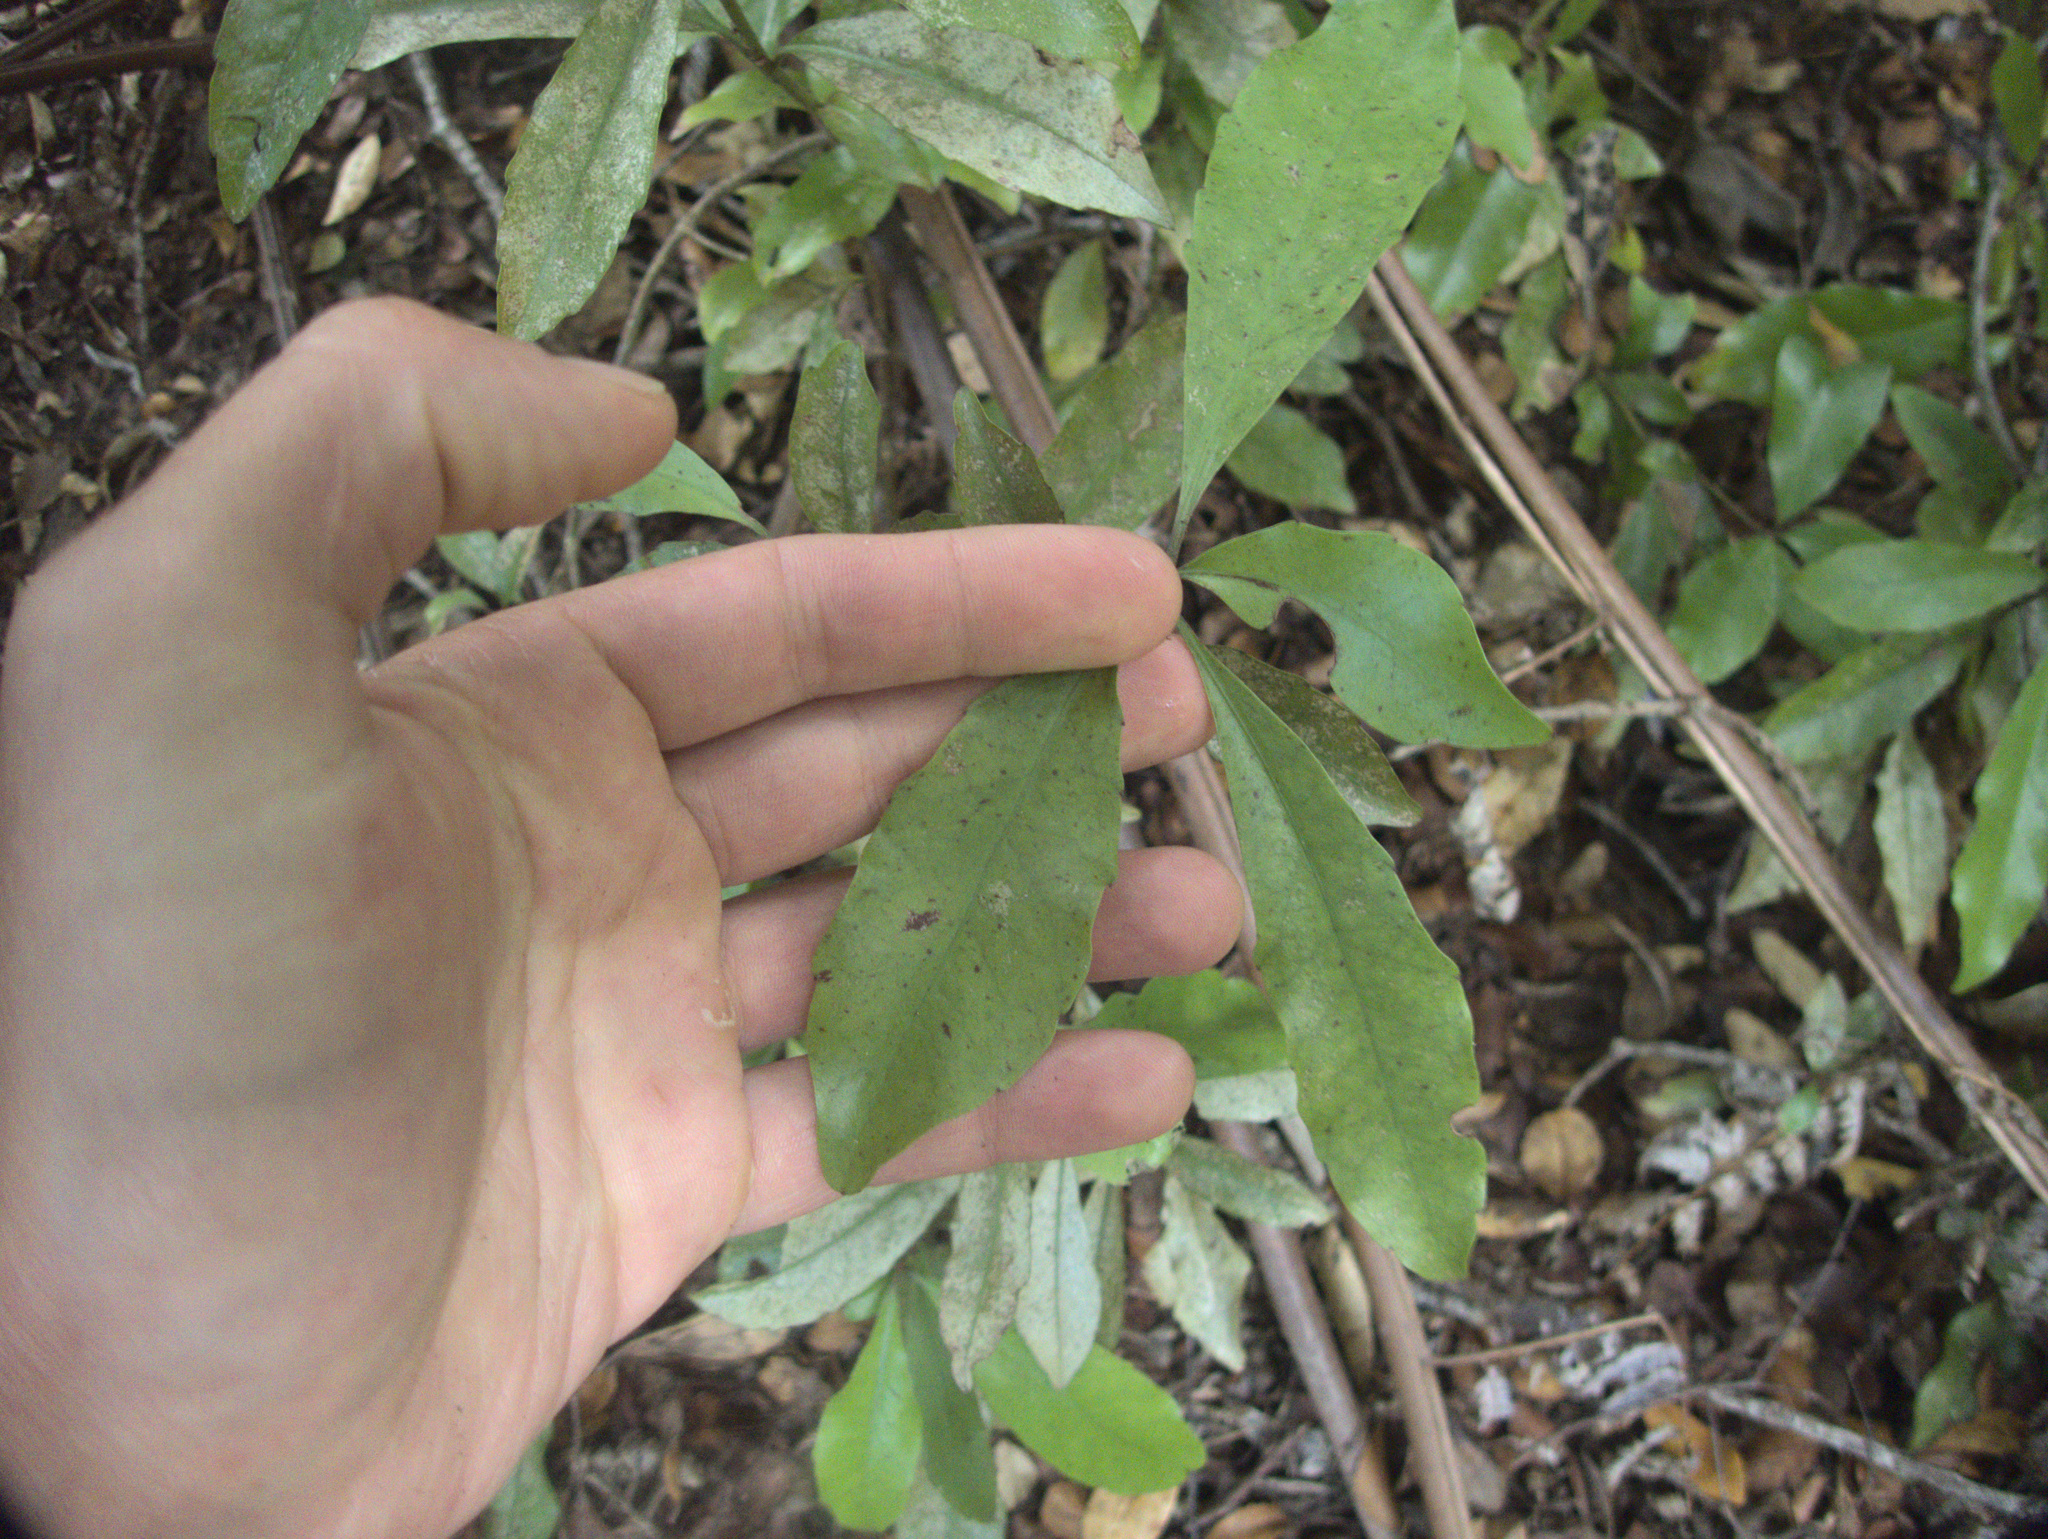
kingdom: Plantae
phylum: Tracheophyta
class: Magnoliopsida
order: Asterales
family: Alseuosmiaceae
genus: Alseuosmia
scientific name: Alseuosmia macrophylla
